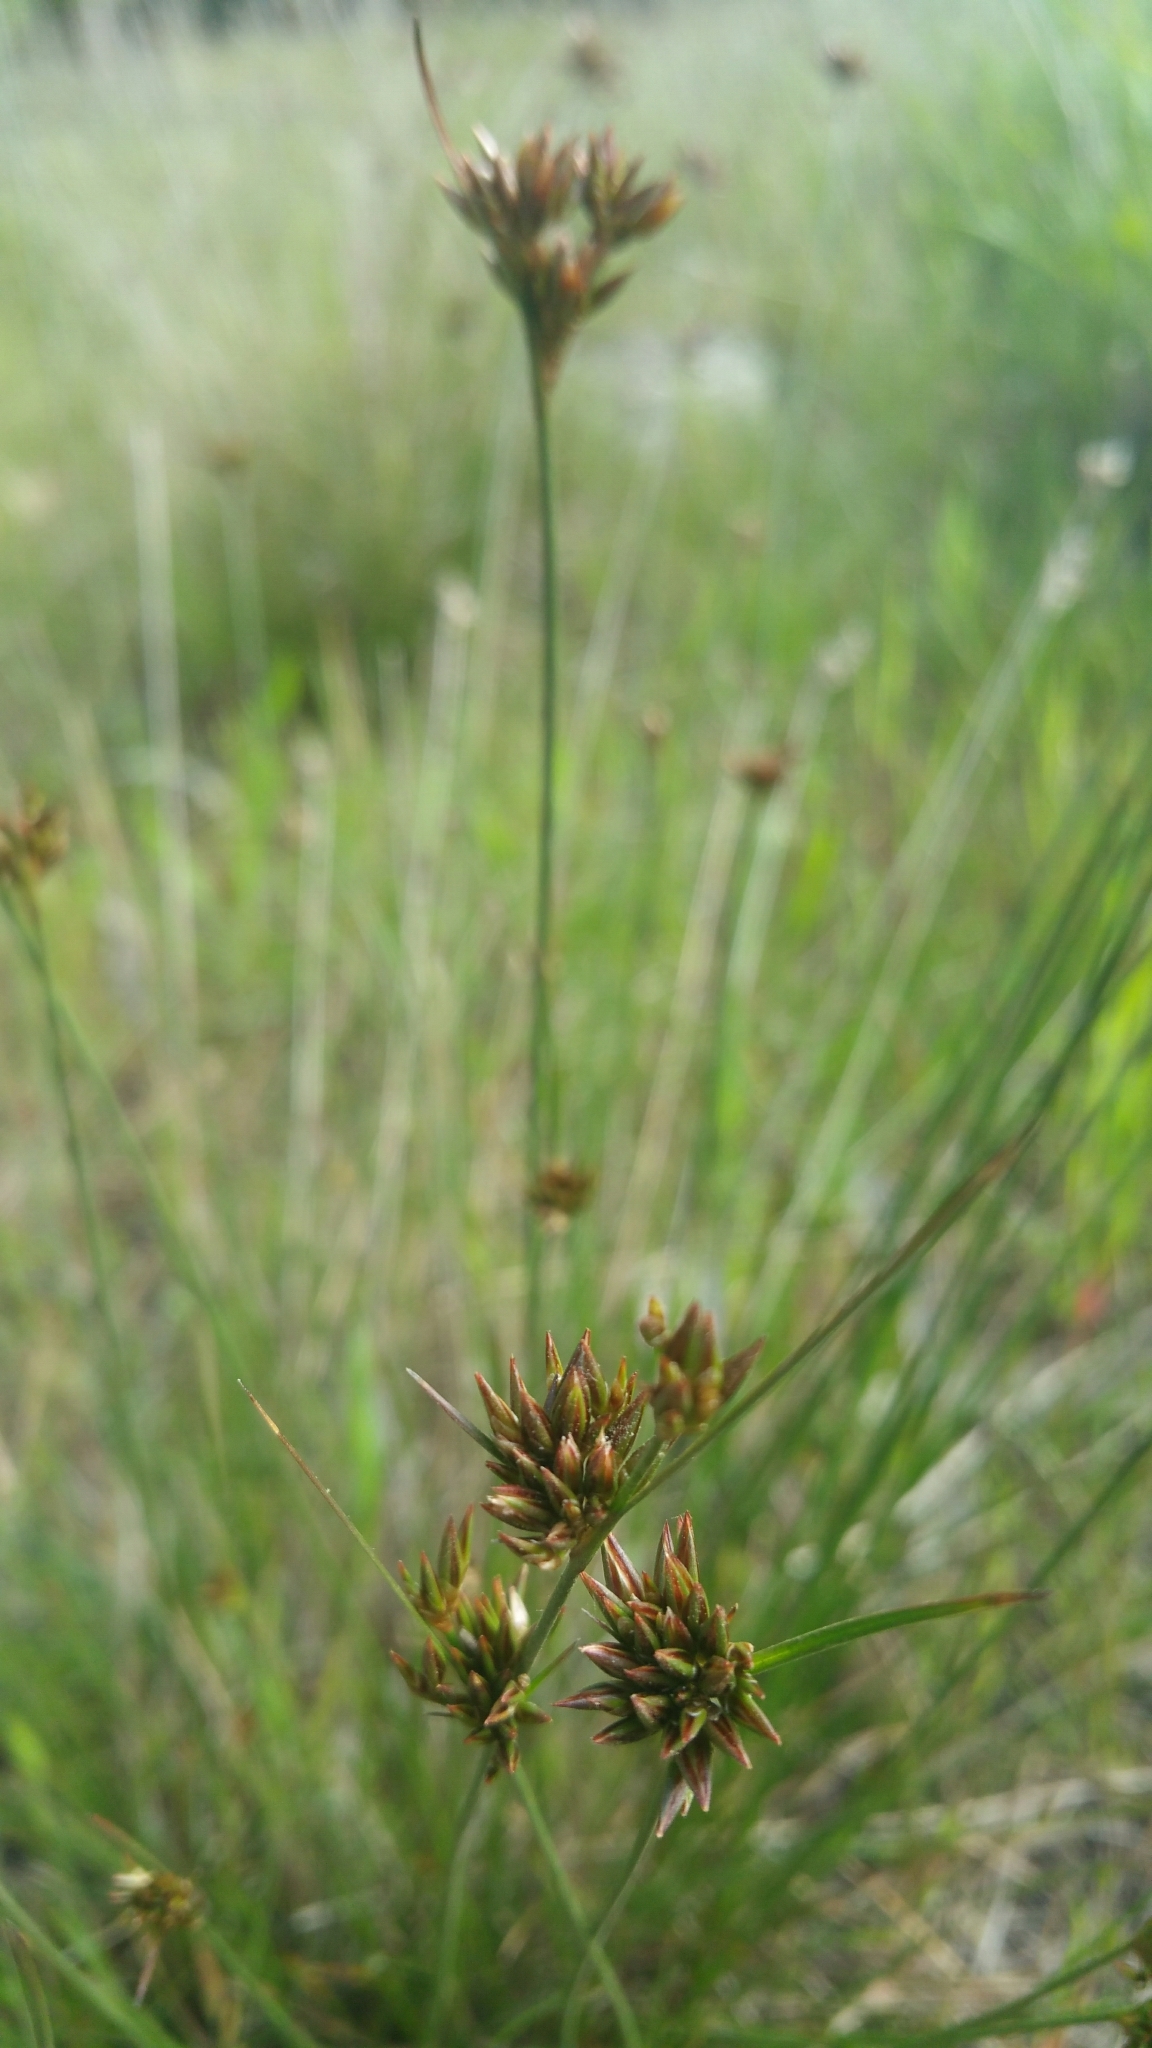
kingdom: Plantae
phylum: Tracheophyta
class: Liliopsida
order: Poales
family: Juncaceae
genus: Juncus
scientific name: Juncus occidentalis
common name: Western rush
